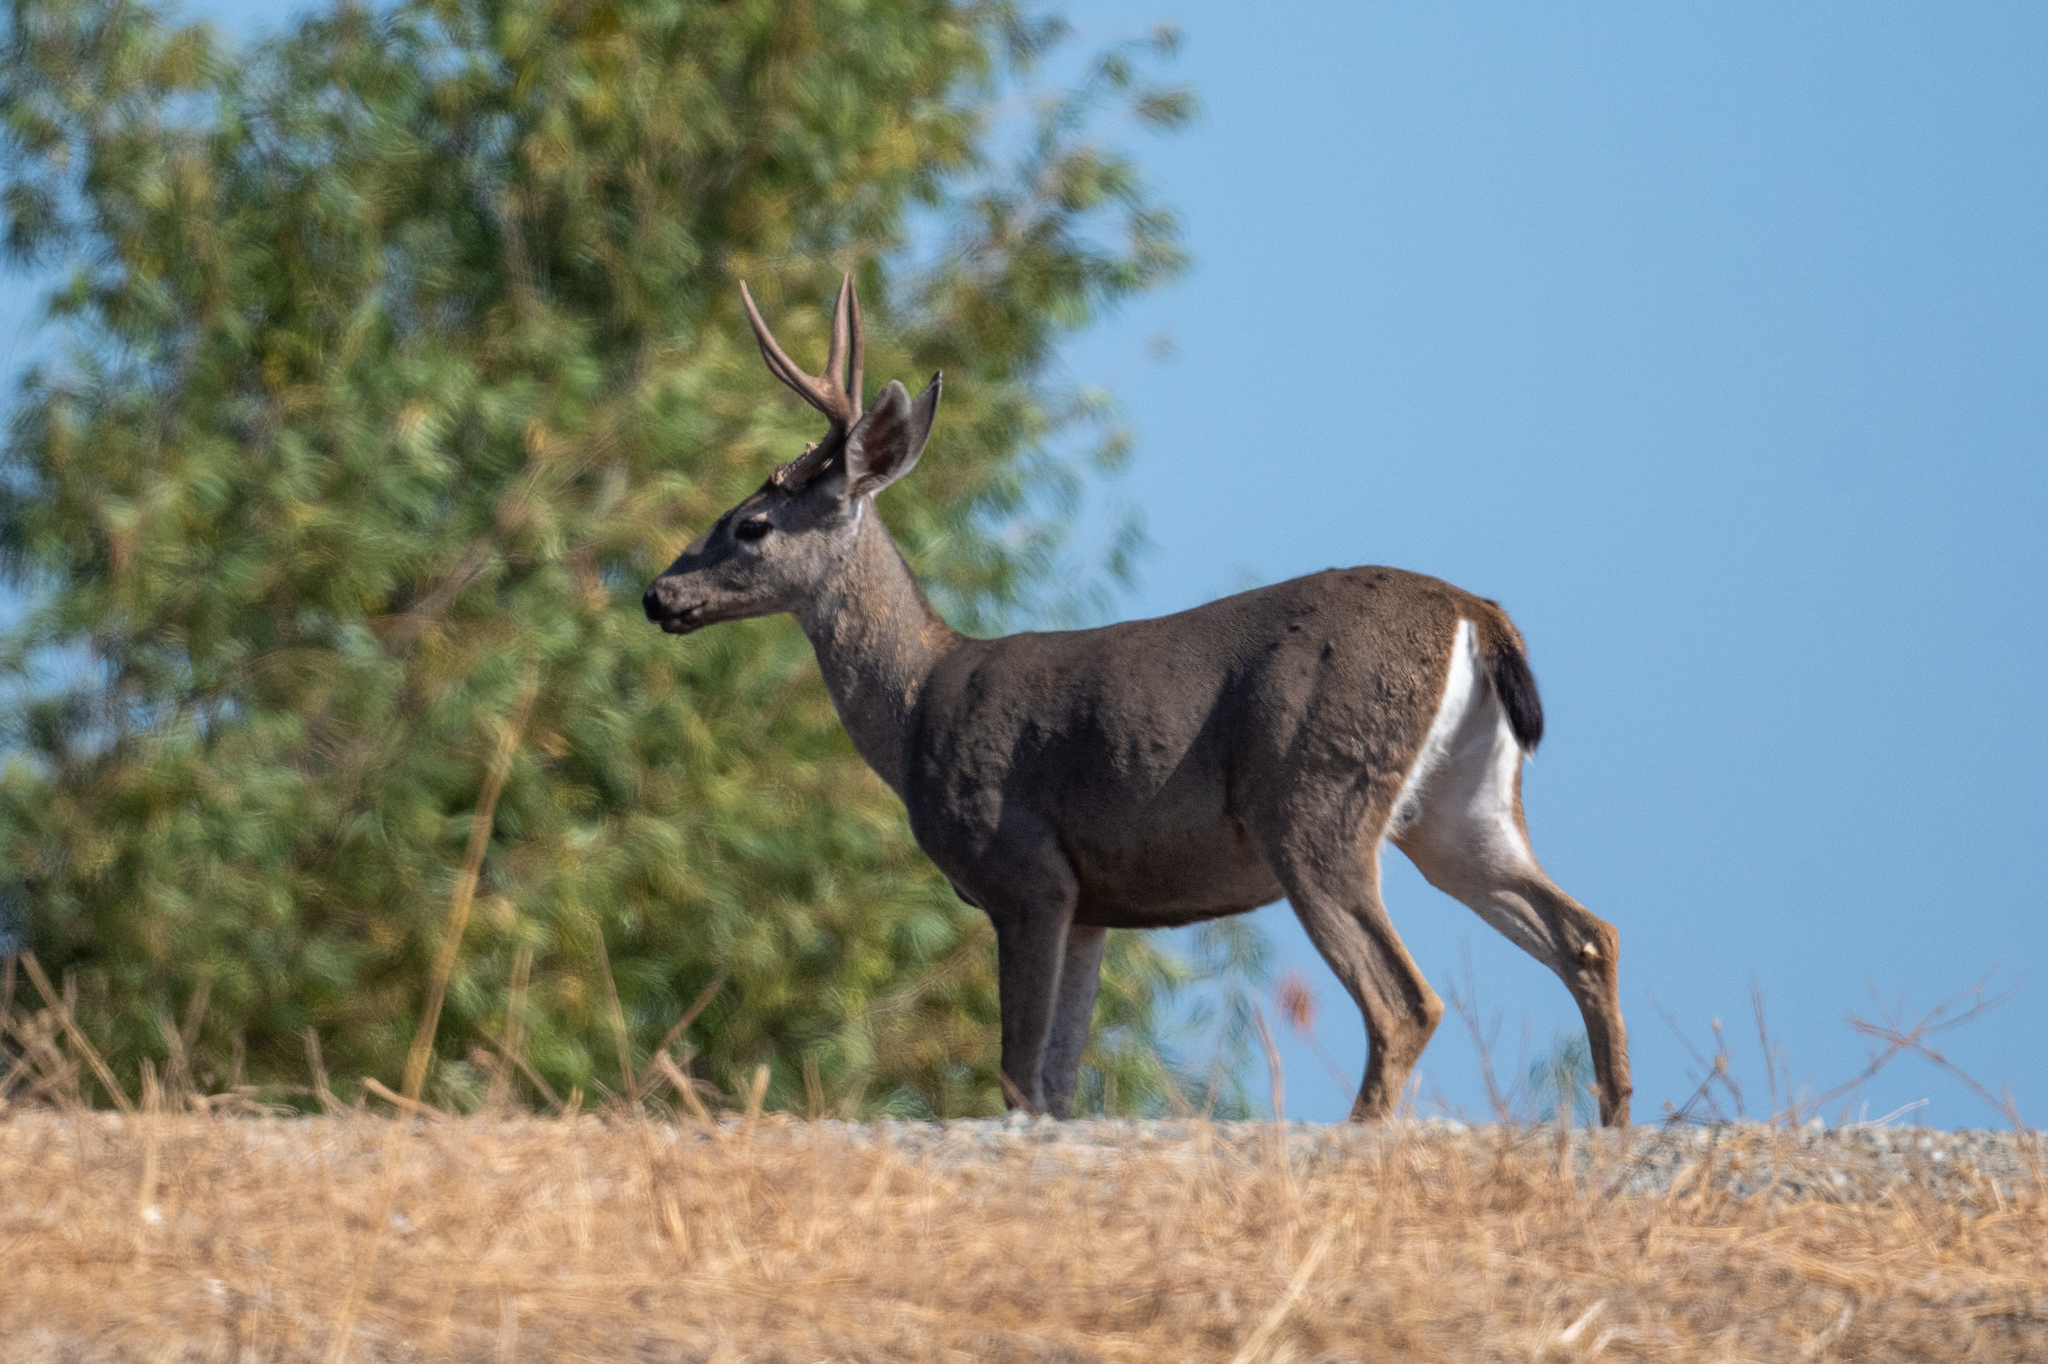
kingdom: Animalia
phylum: Chordata
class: Mammalia
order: Artiodactyla
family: Cervidae
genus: Odocoileus
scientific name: Odocoileus hemionus
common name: Mule deer
